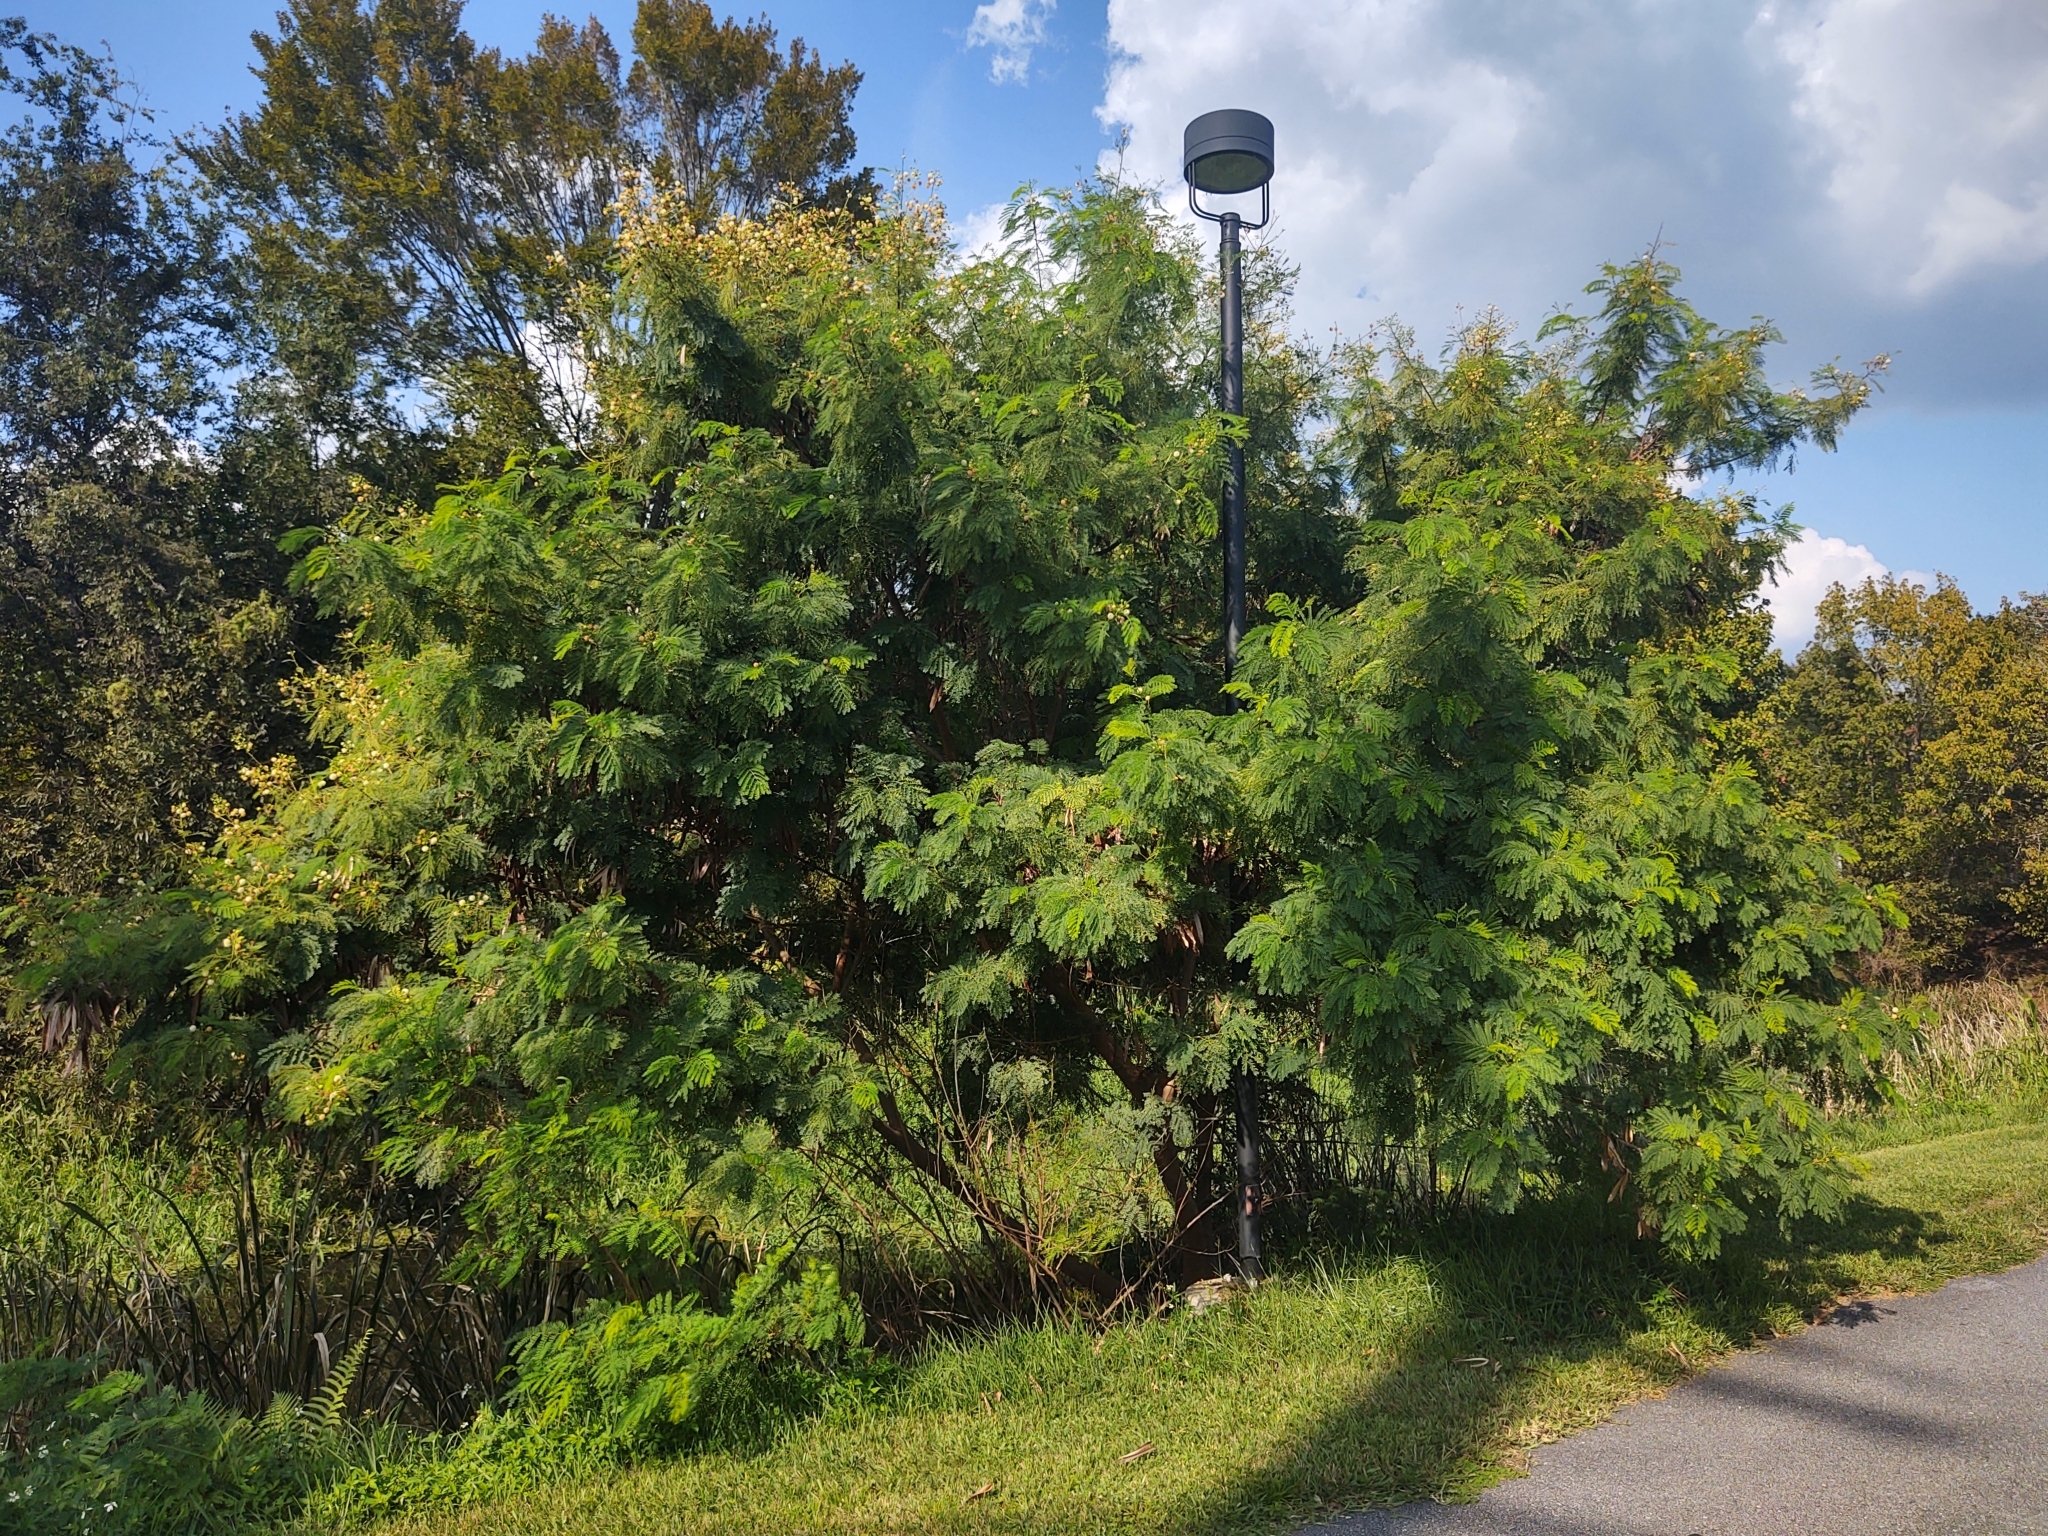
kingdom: Plantae
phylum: Tracheophyta
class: Magnoliopsida
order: Fabales
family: Fabaceae
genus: Leucaena
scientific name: Leucaena leucocephala
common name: White leadtree
